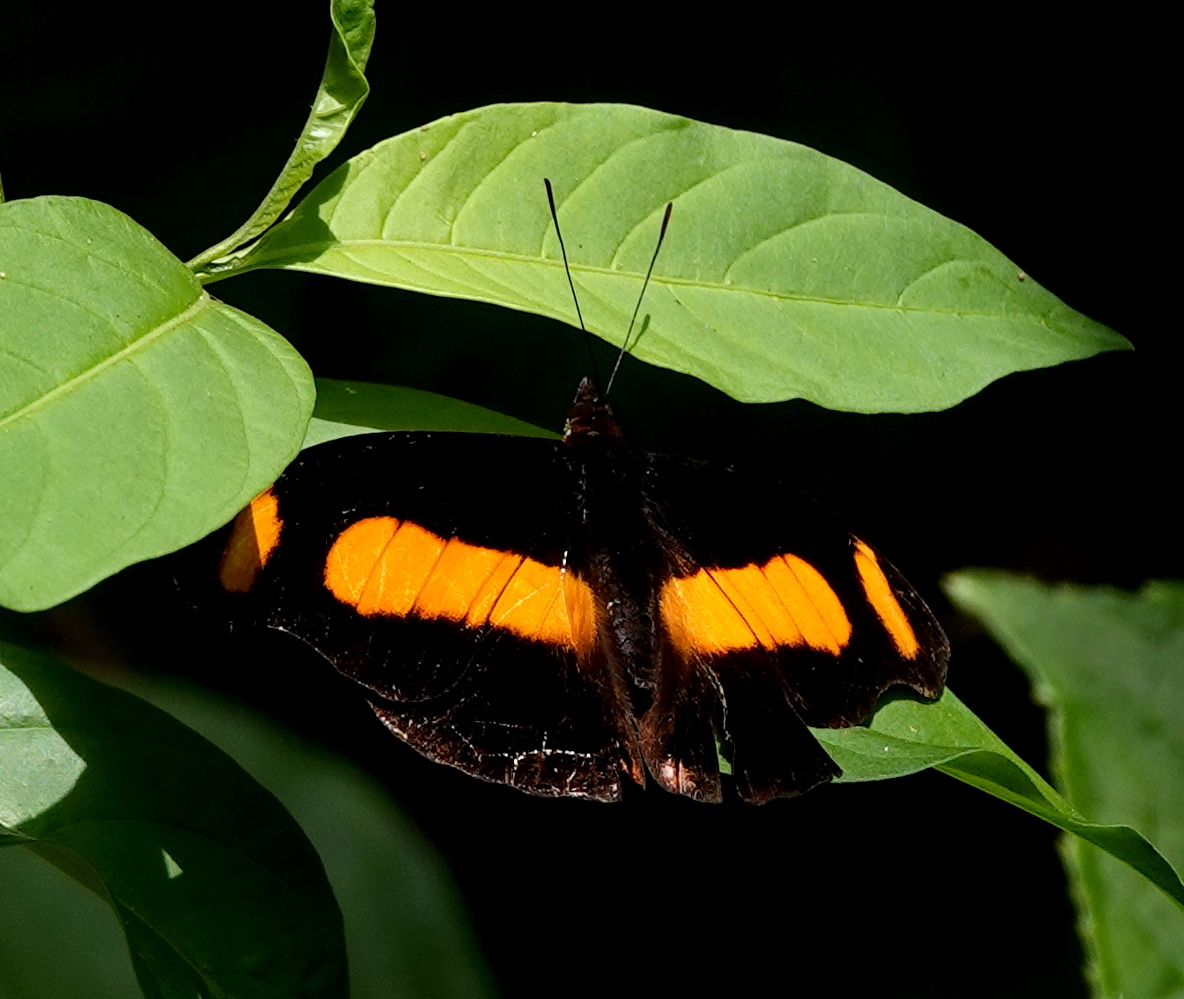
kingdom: Animalia
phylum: Arthropoda
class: Insecta
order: Lepidoptera
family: Nymphalidae
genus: Catonephele
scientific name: Catonephele chromis
